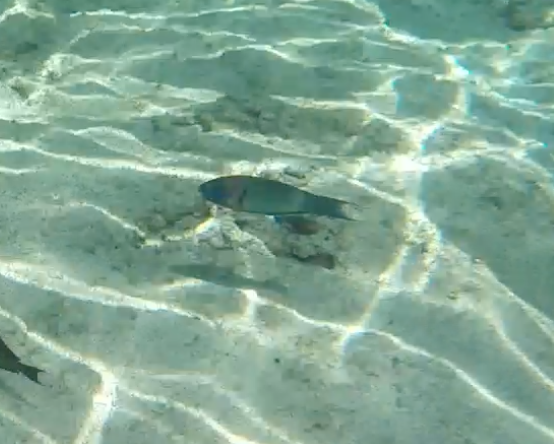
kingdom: Animalia
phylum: Chordata
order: Perciformes
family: Labridae
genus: Thalassoma
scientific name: Thalassoma duperrey
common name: Saddle wrasse
